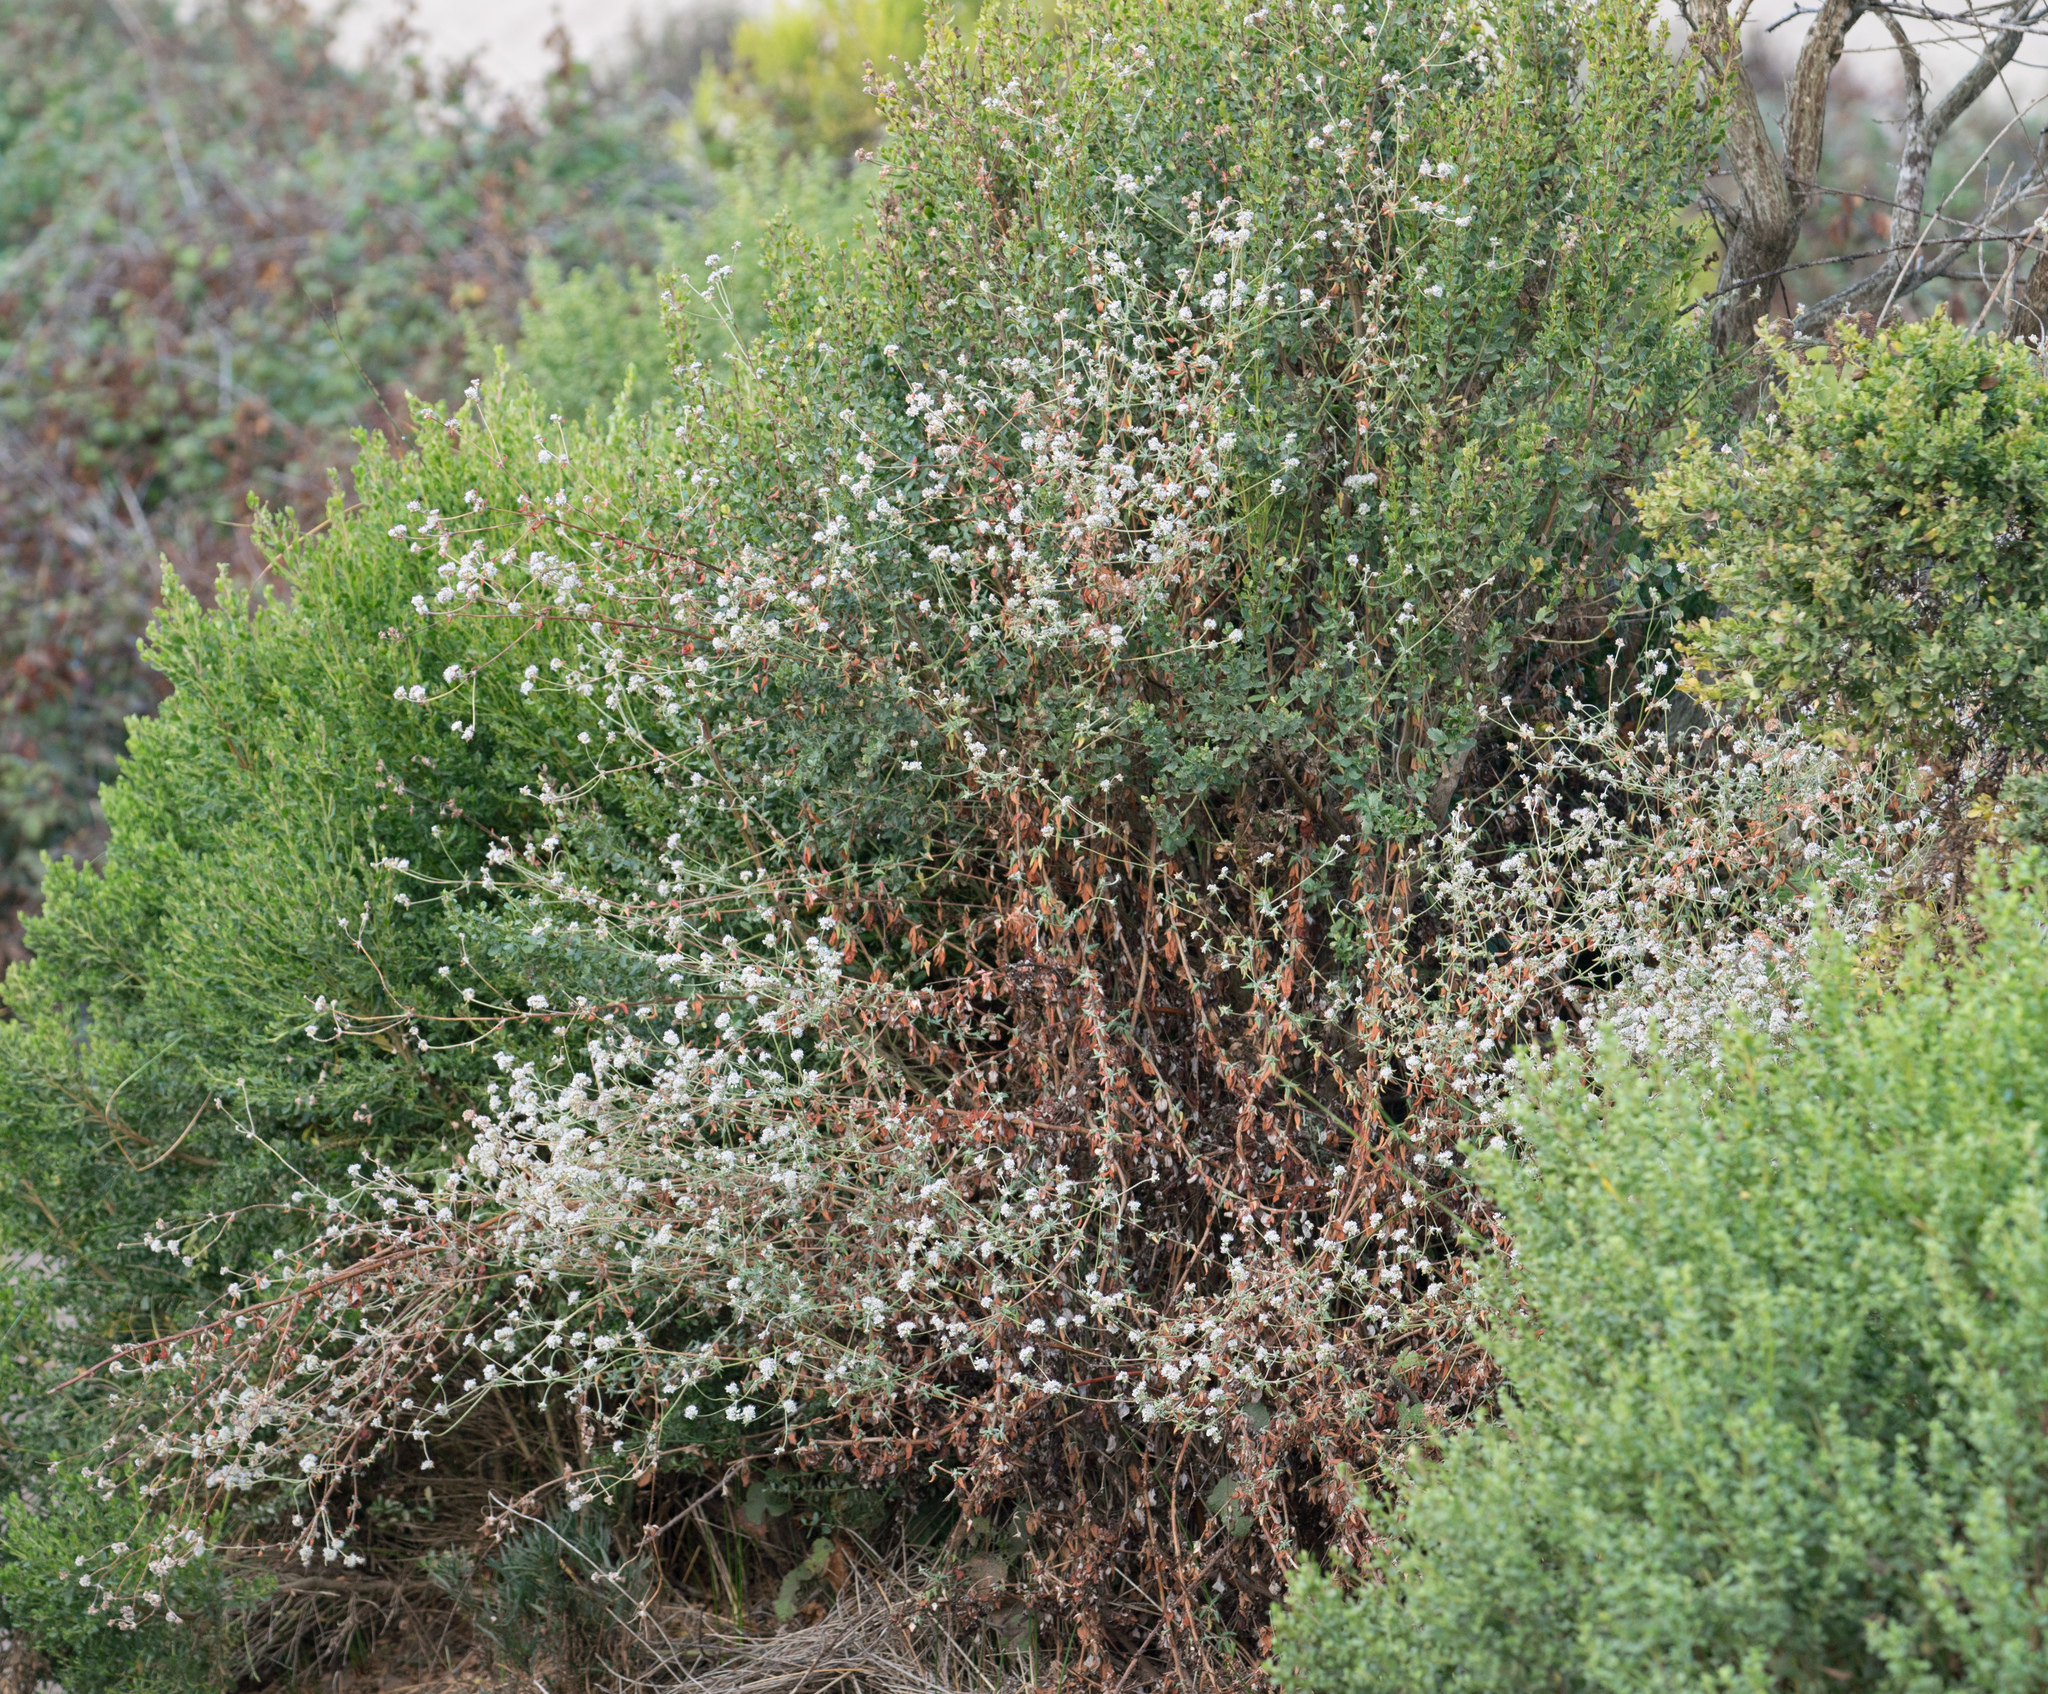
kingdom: Plantae
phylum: Tracheophyta
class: Magnoliopsida
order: Caryophyllales
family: Polygonaceae
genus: Eriogonum
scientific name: Eriogonum parvifolium
